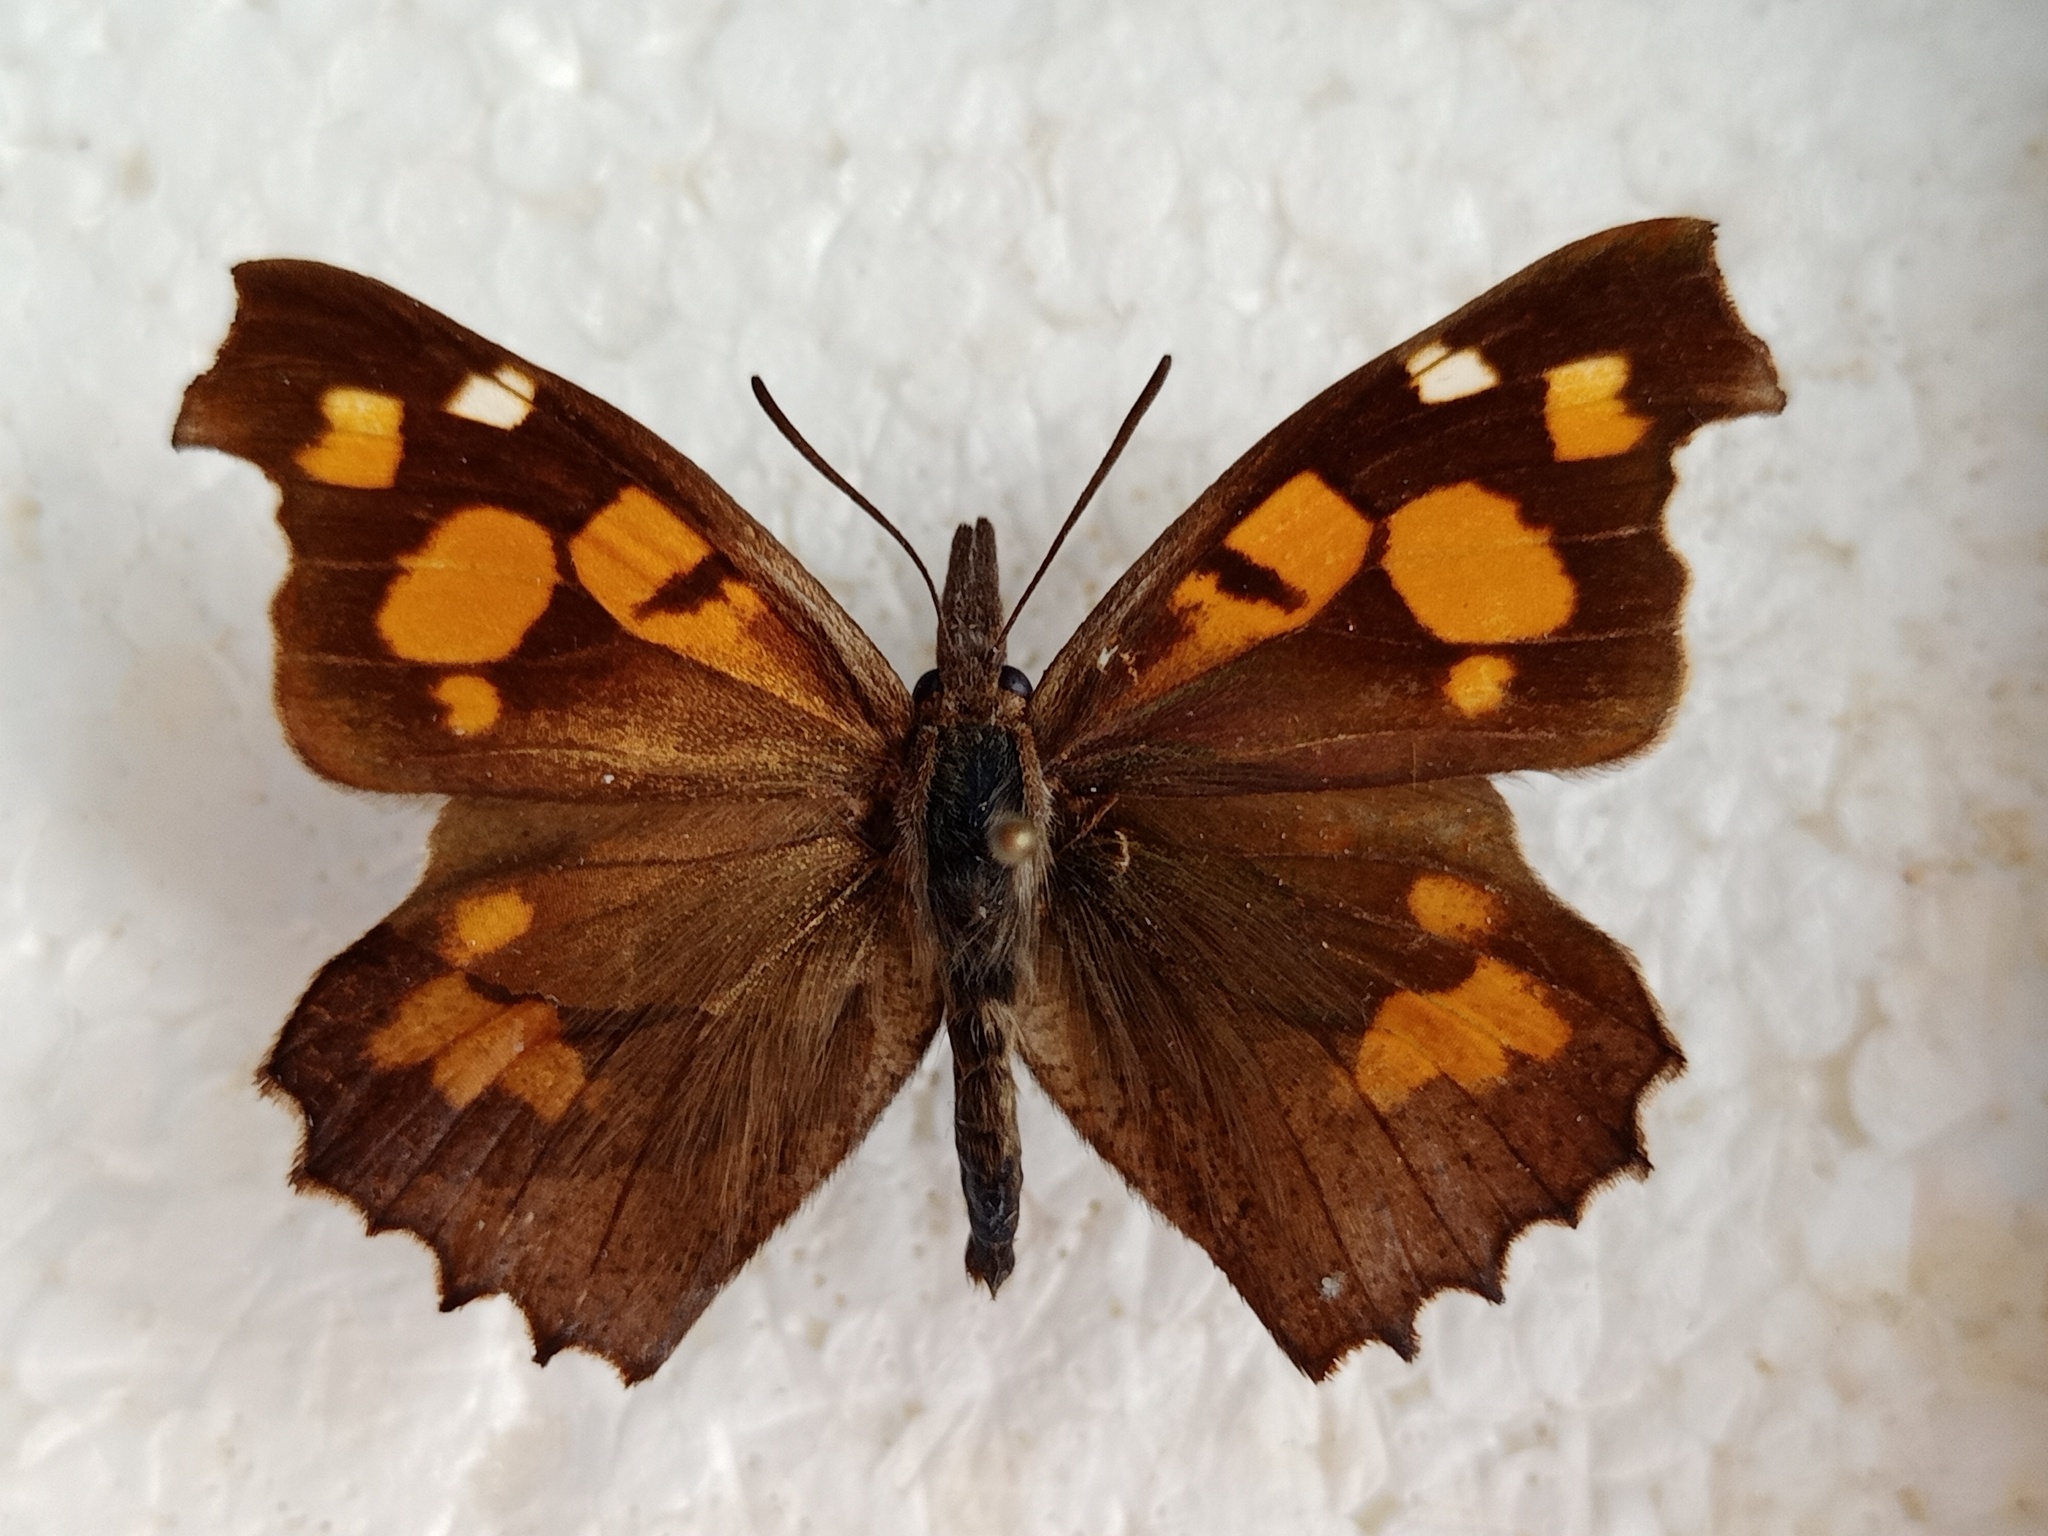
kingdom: Animalia
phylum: Arthropoda
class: Insecta
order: Lepidoptera
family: Nymphalidae
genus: Libythea
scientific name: Libythea celtis
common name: Nettle-tree butterfly
